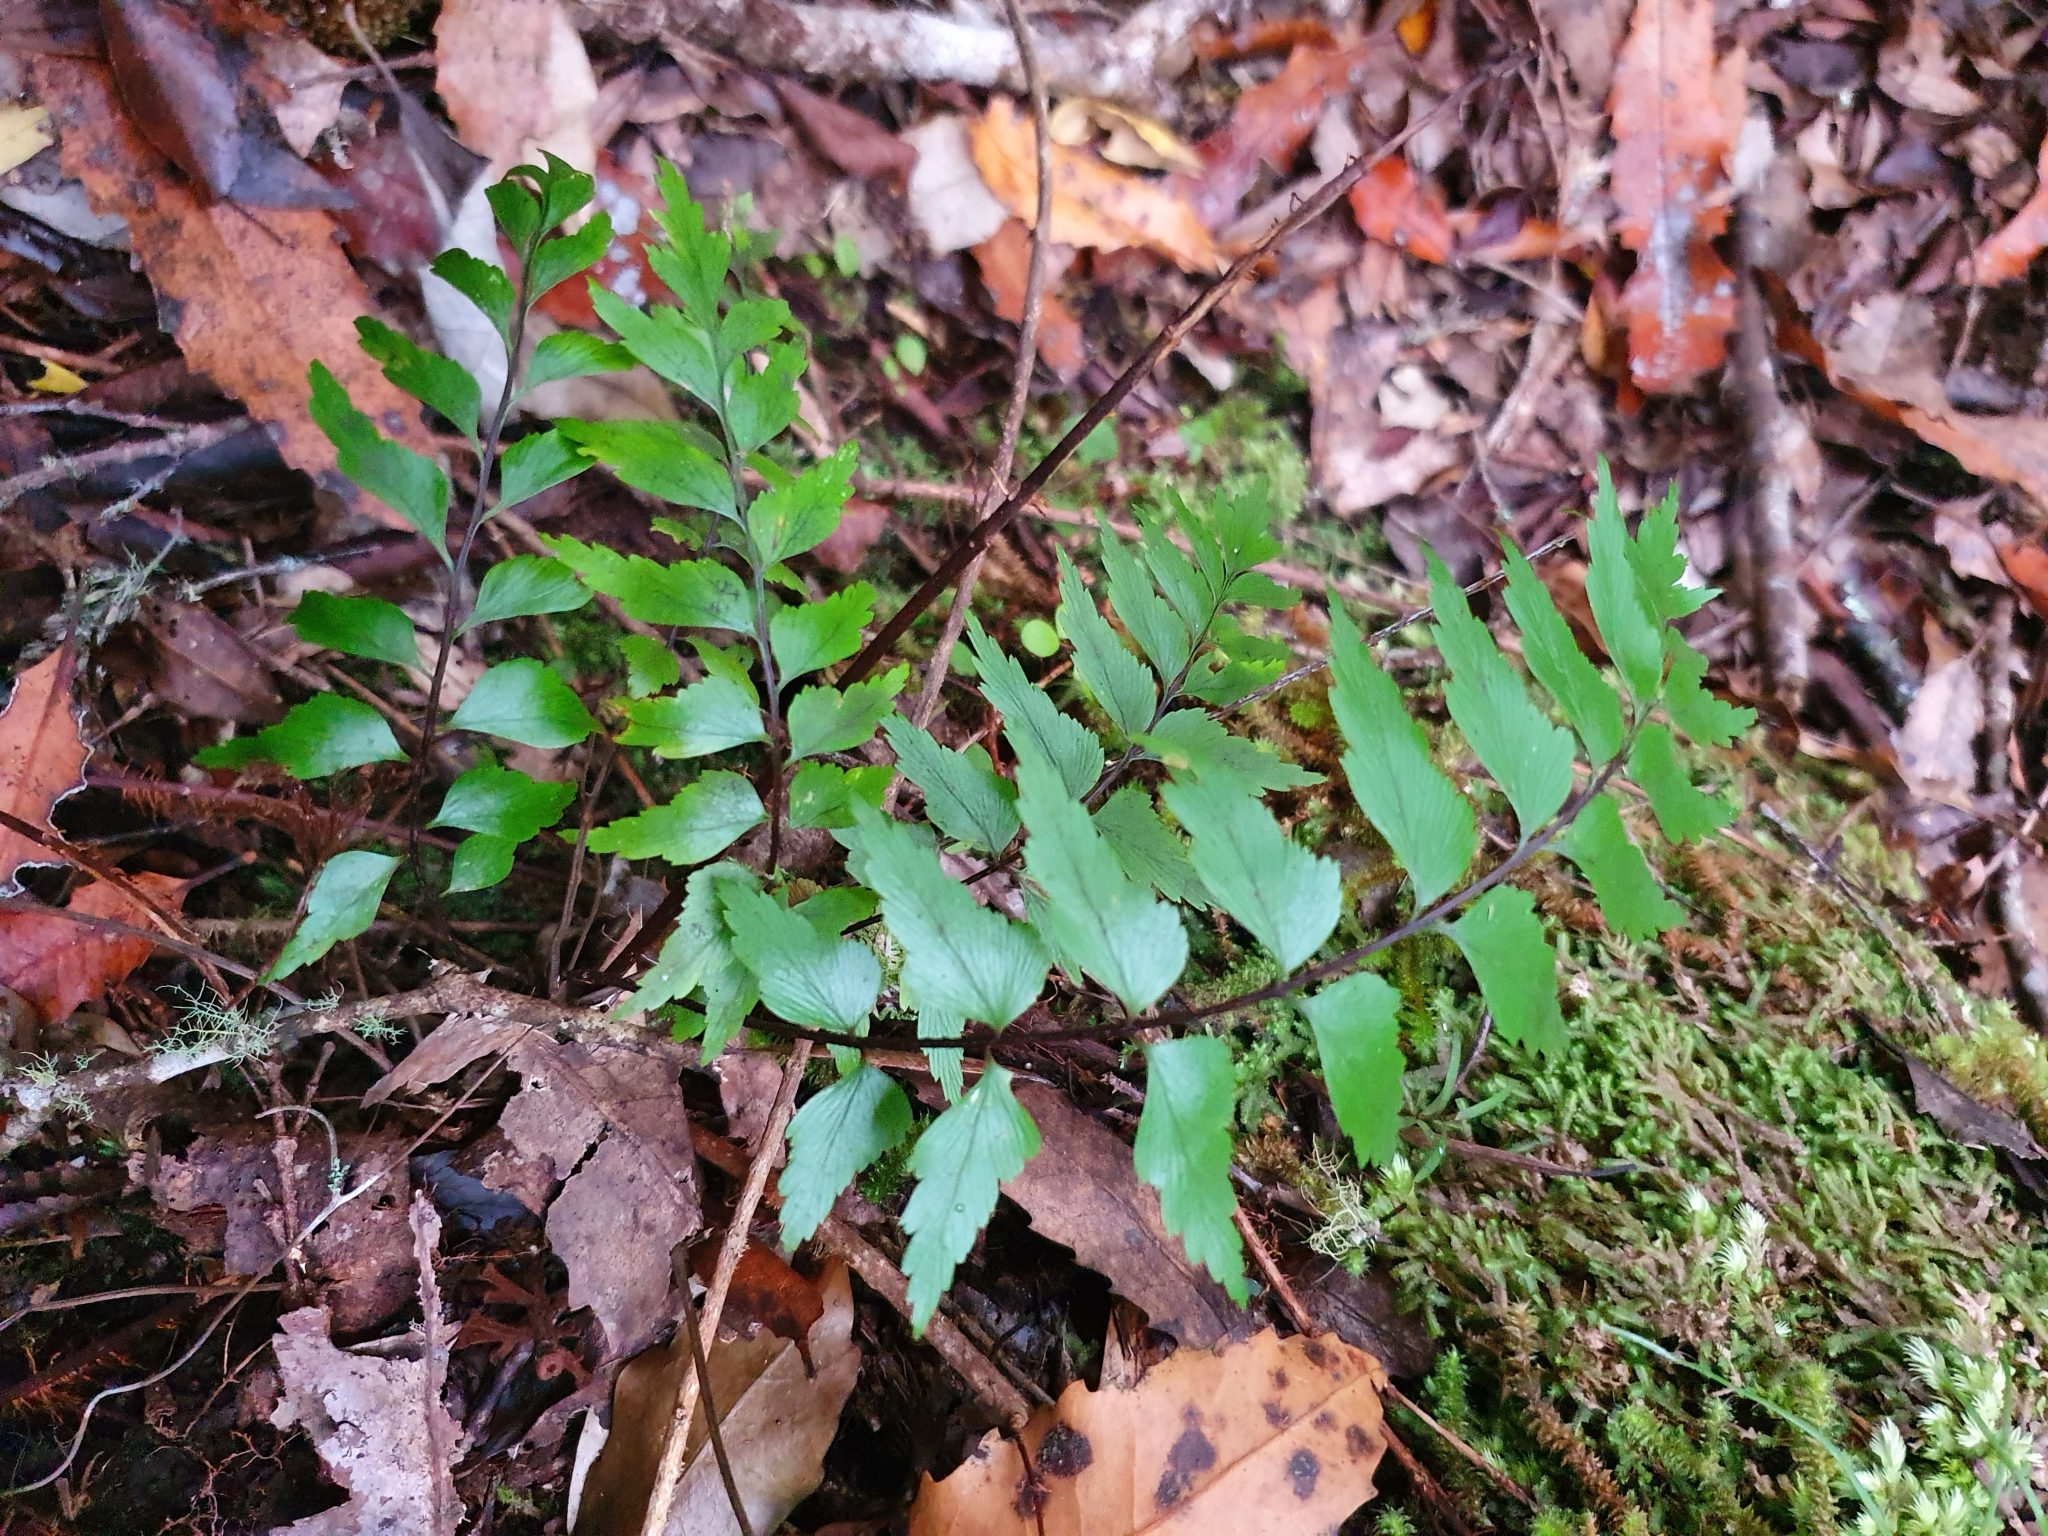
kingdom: Plantae
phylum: Tracheophyta
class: Polypodiopsida
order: Polypodiales
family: Aspleniaceae
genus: Asplenium
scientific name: Asplenium polyodon
